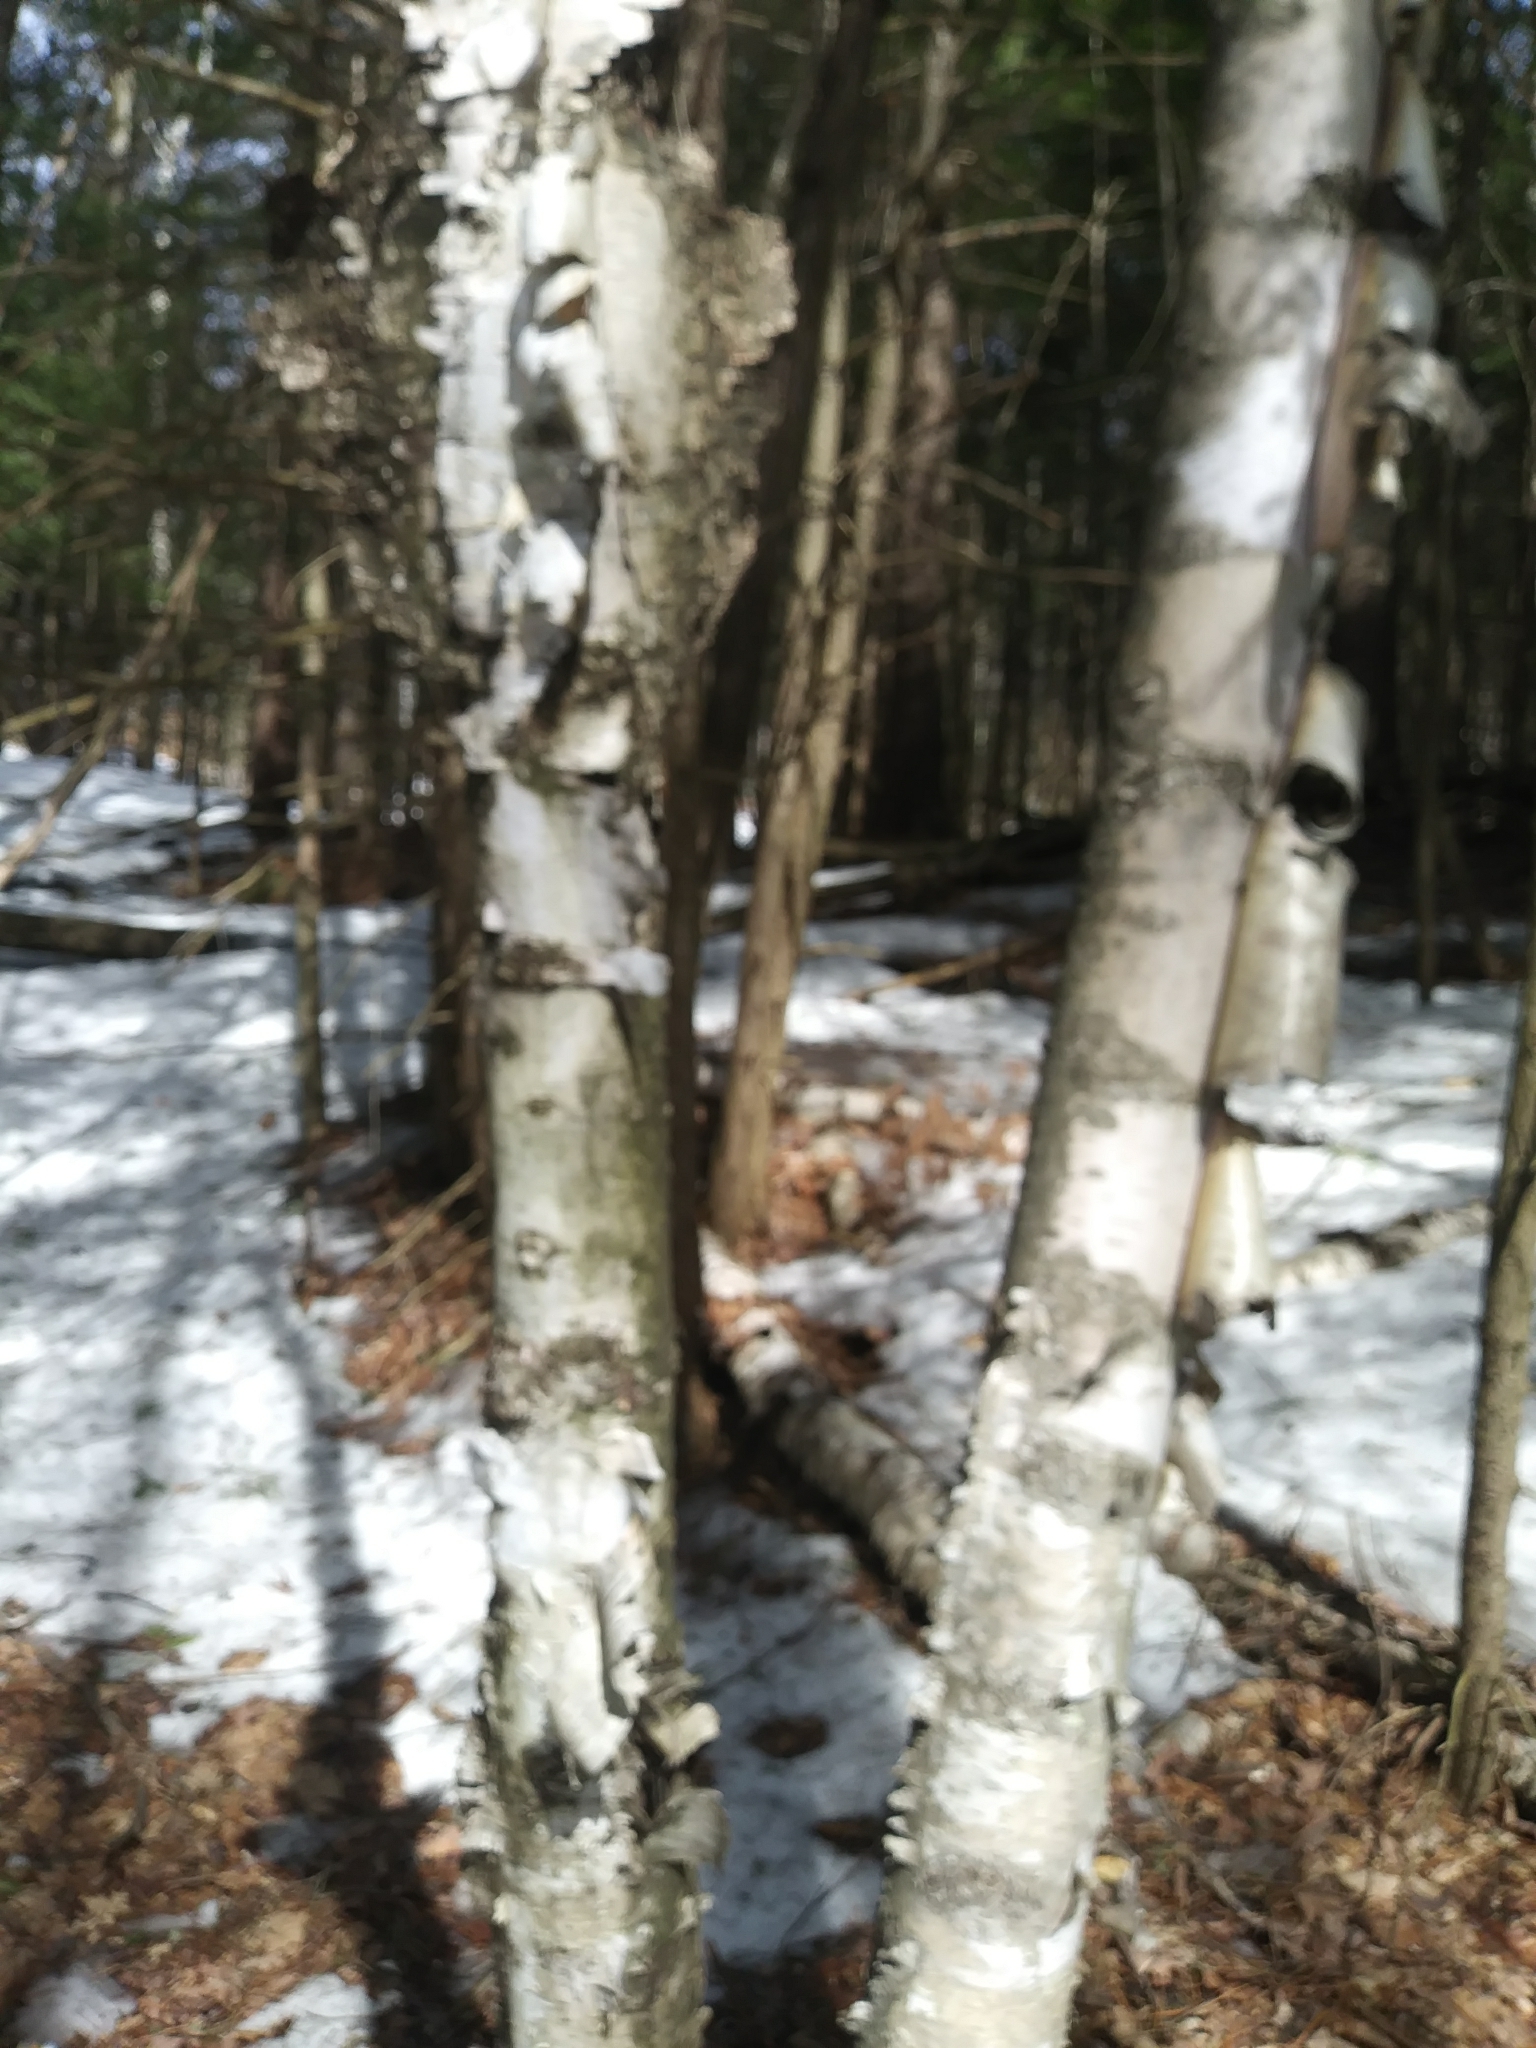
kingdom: Plantae
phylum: Tracheophyta
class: Magnoliopsida
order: Fagales
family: Betulaceae
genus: Betula
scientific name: Betula papyrifera
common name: Paper birch
